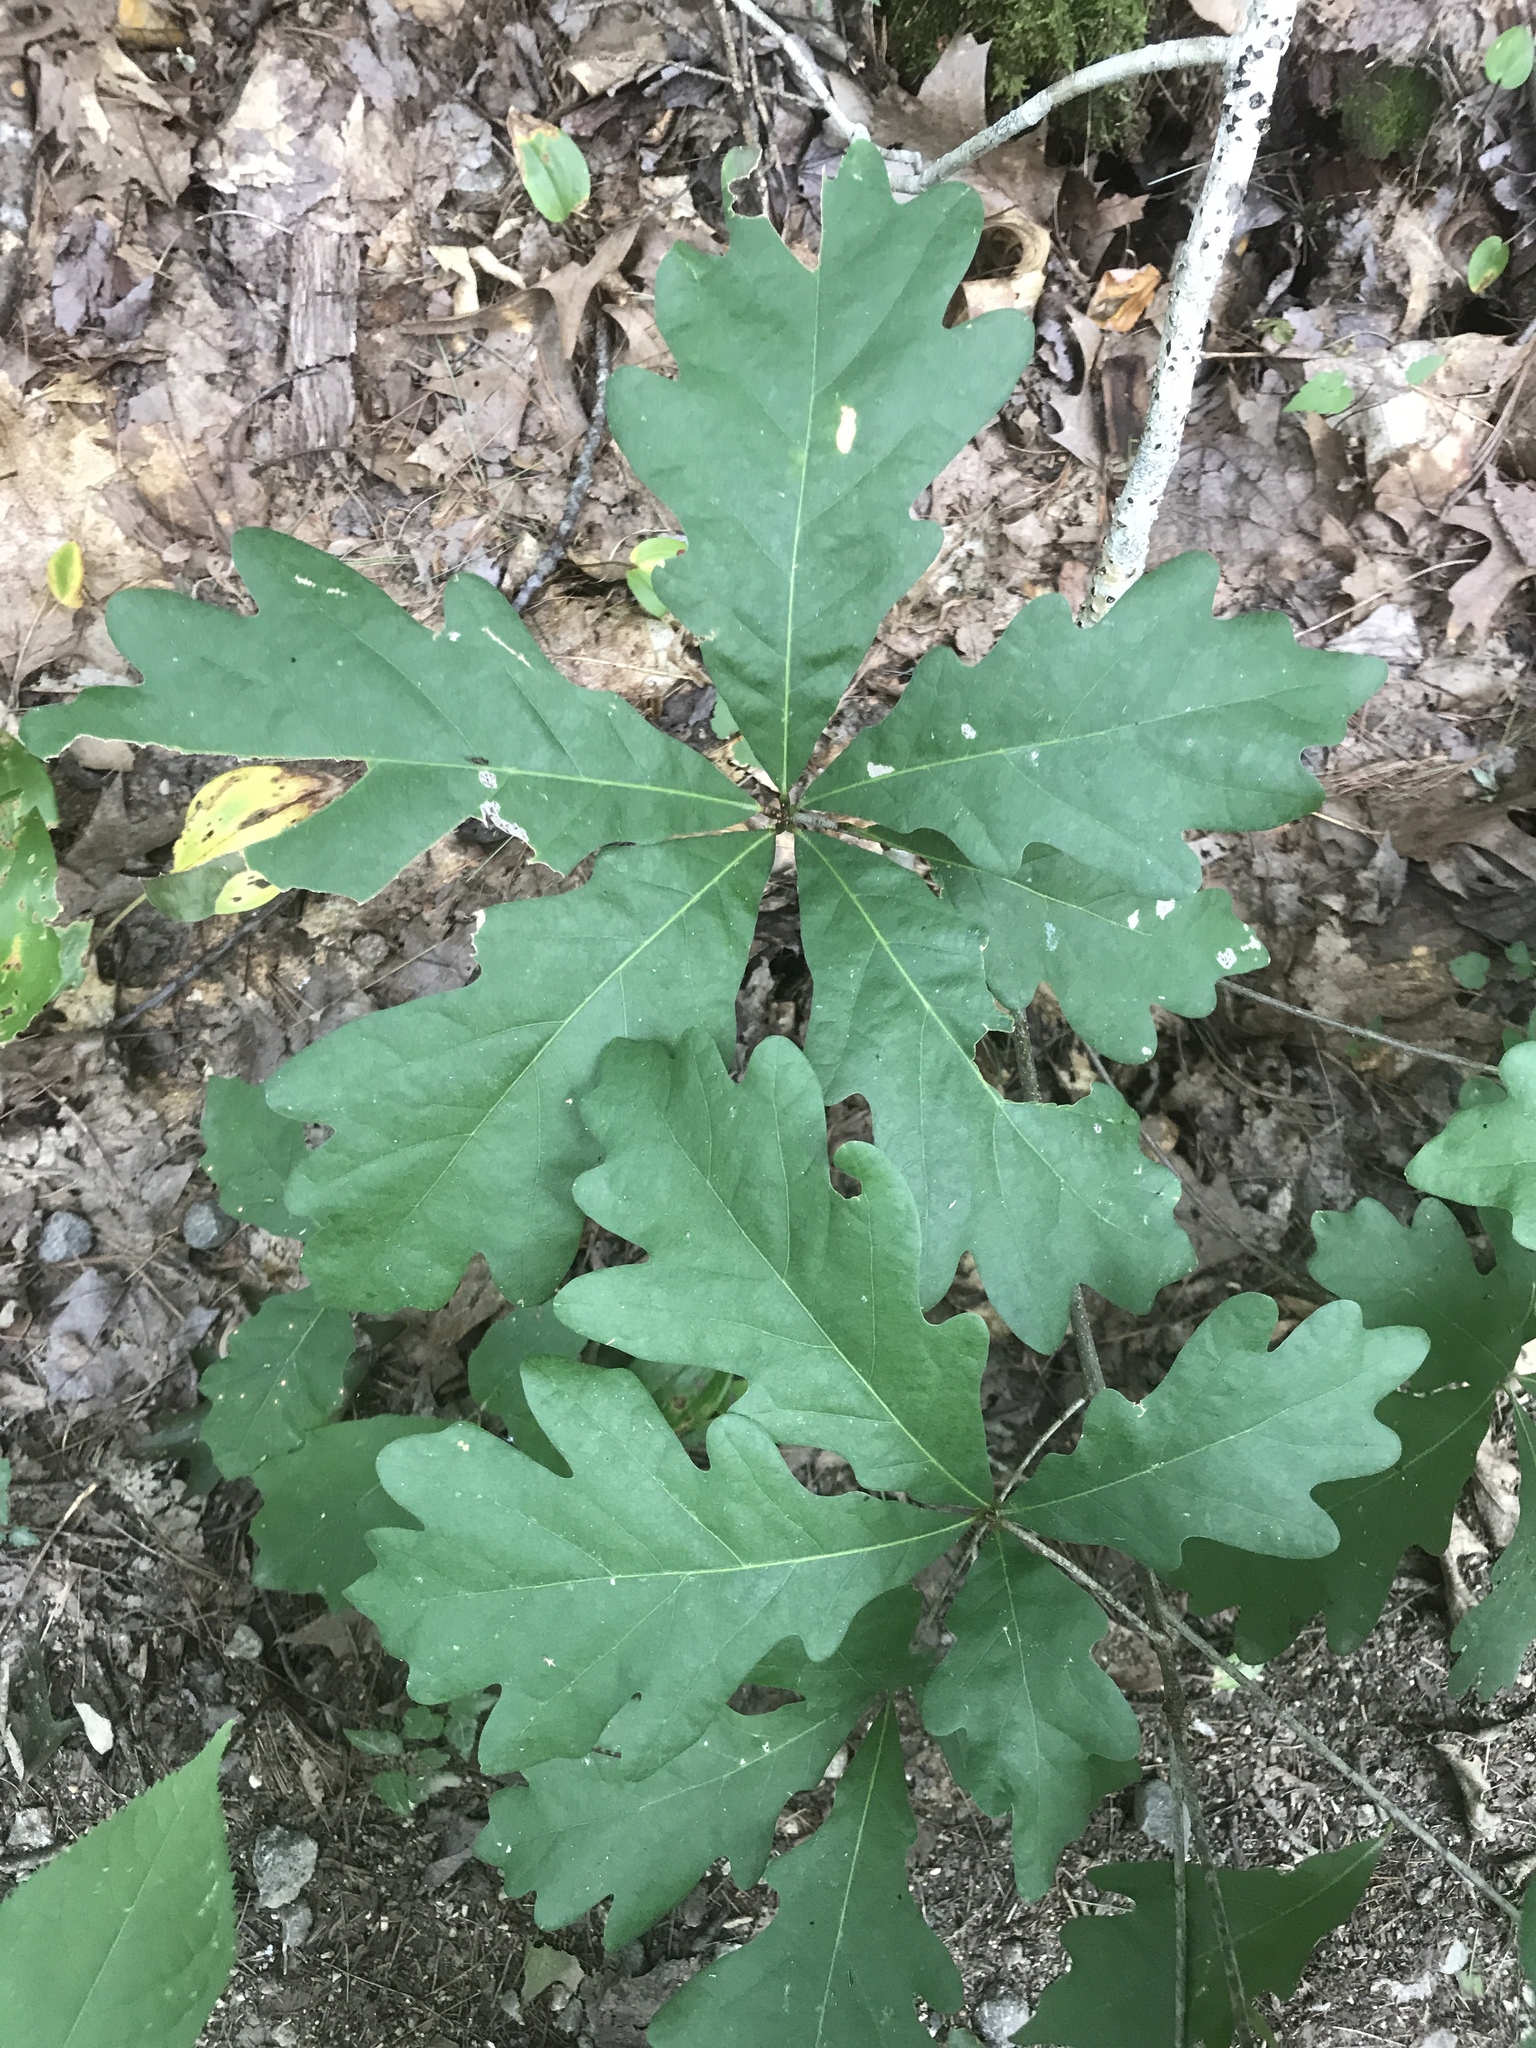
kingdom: Plantae
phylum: Tracheophyta
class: Magnoliopsida
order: Fagales
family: Fagaceae
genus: Quercus
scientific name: Quercus alba
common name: White oak
